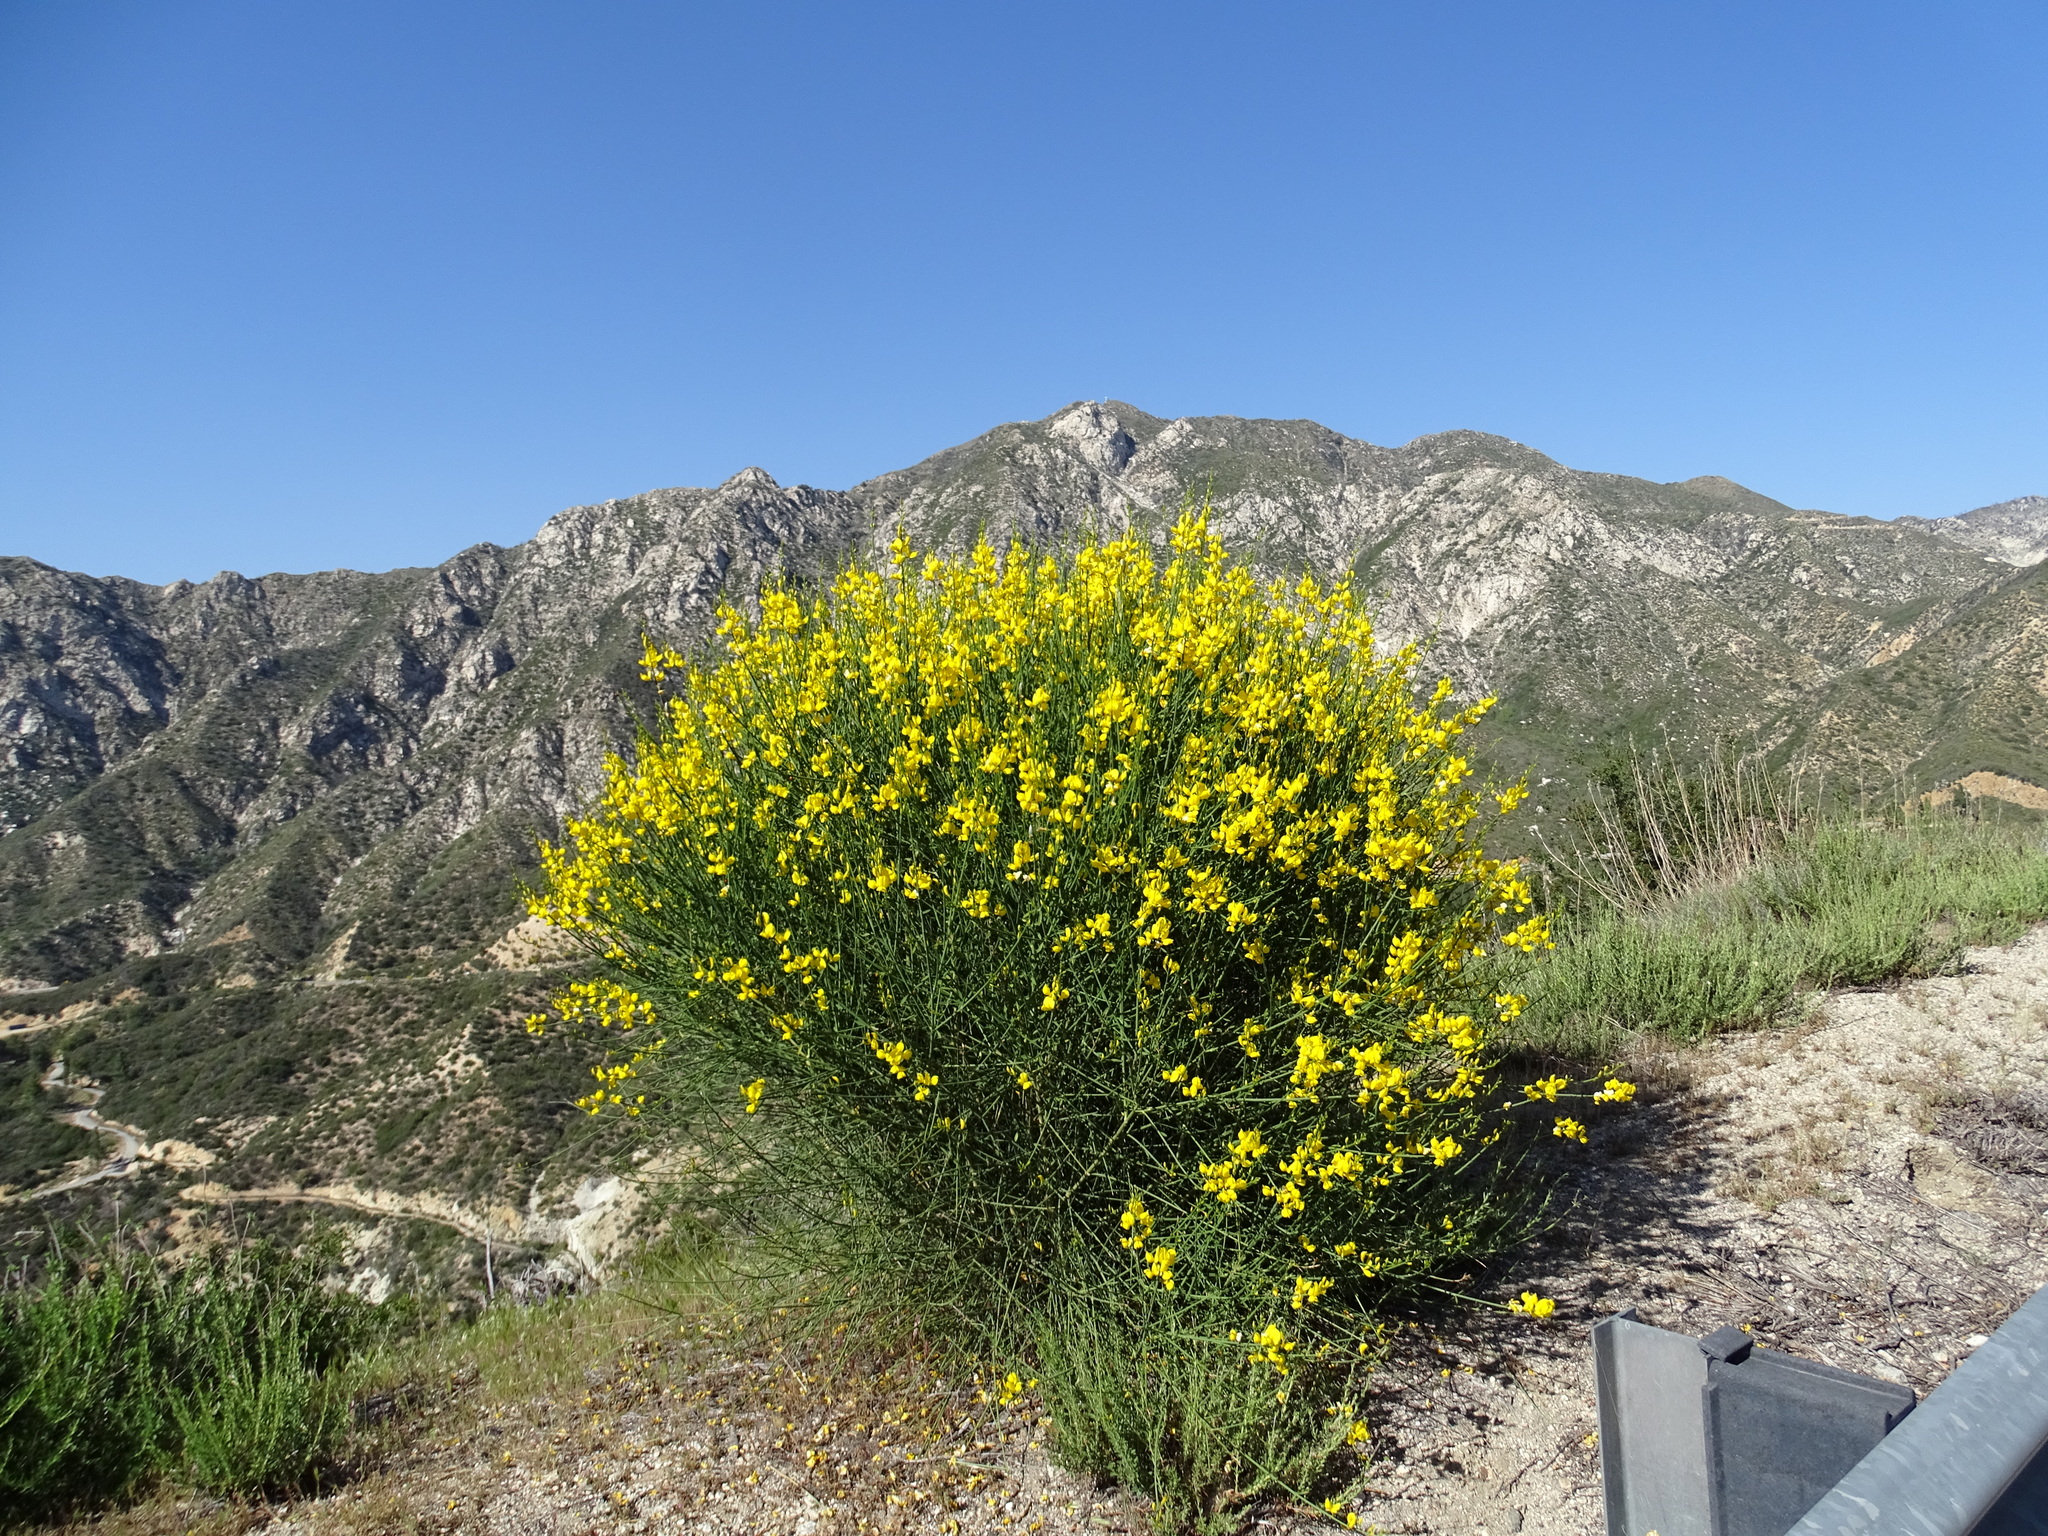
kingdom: Plantae
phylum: Tracheophyta
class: Magnoliopsida
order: Fabales
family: Fabaceae
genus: Spartium
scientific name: Spartium junceum
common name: Spanish broom
